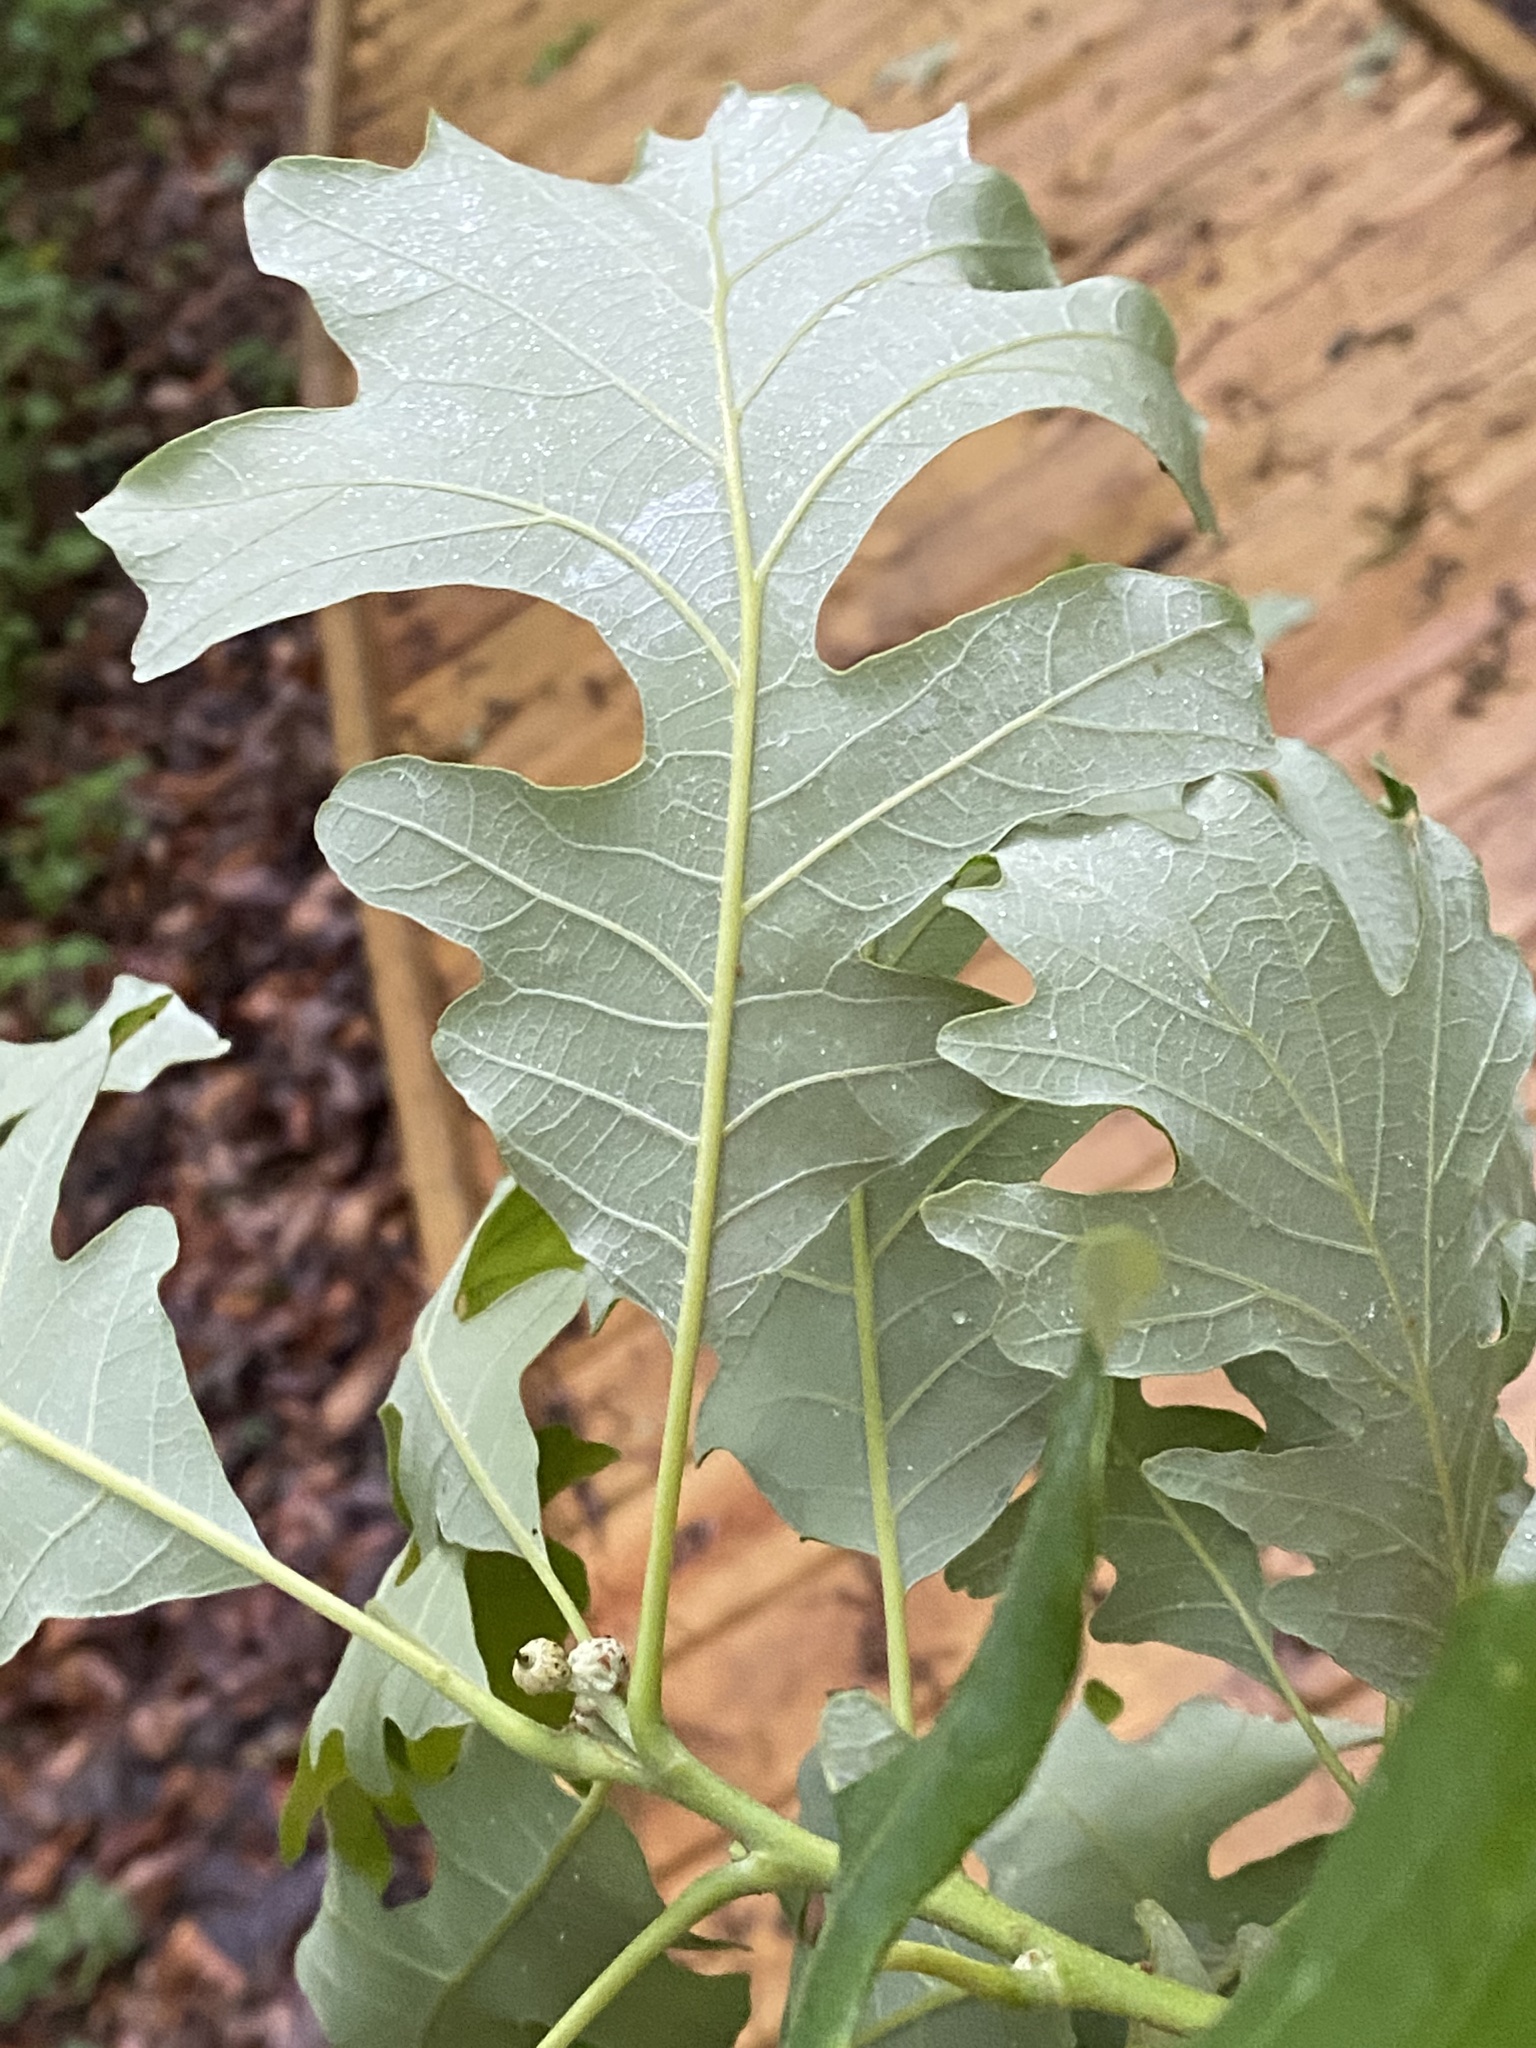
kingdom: Plantae
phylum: Tracheophyta
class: Magnoliopsida
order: Fagales
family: Fagaceae
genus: Quercus
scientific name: Quercus macrocarpa
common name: Bur oak
